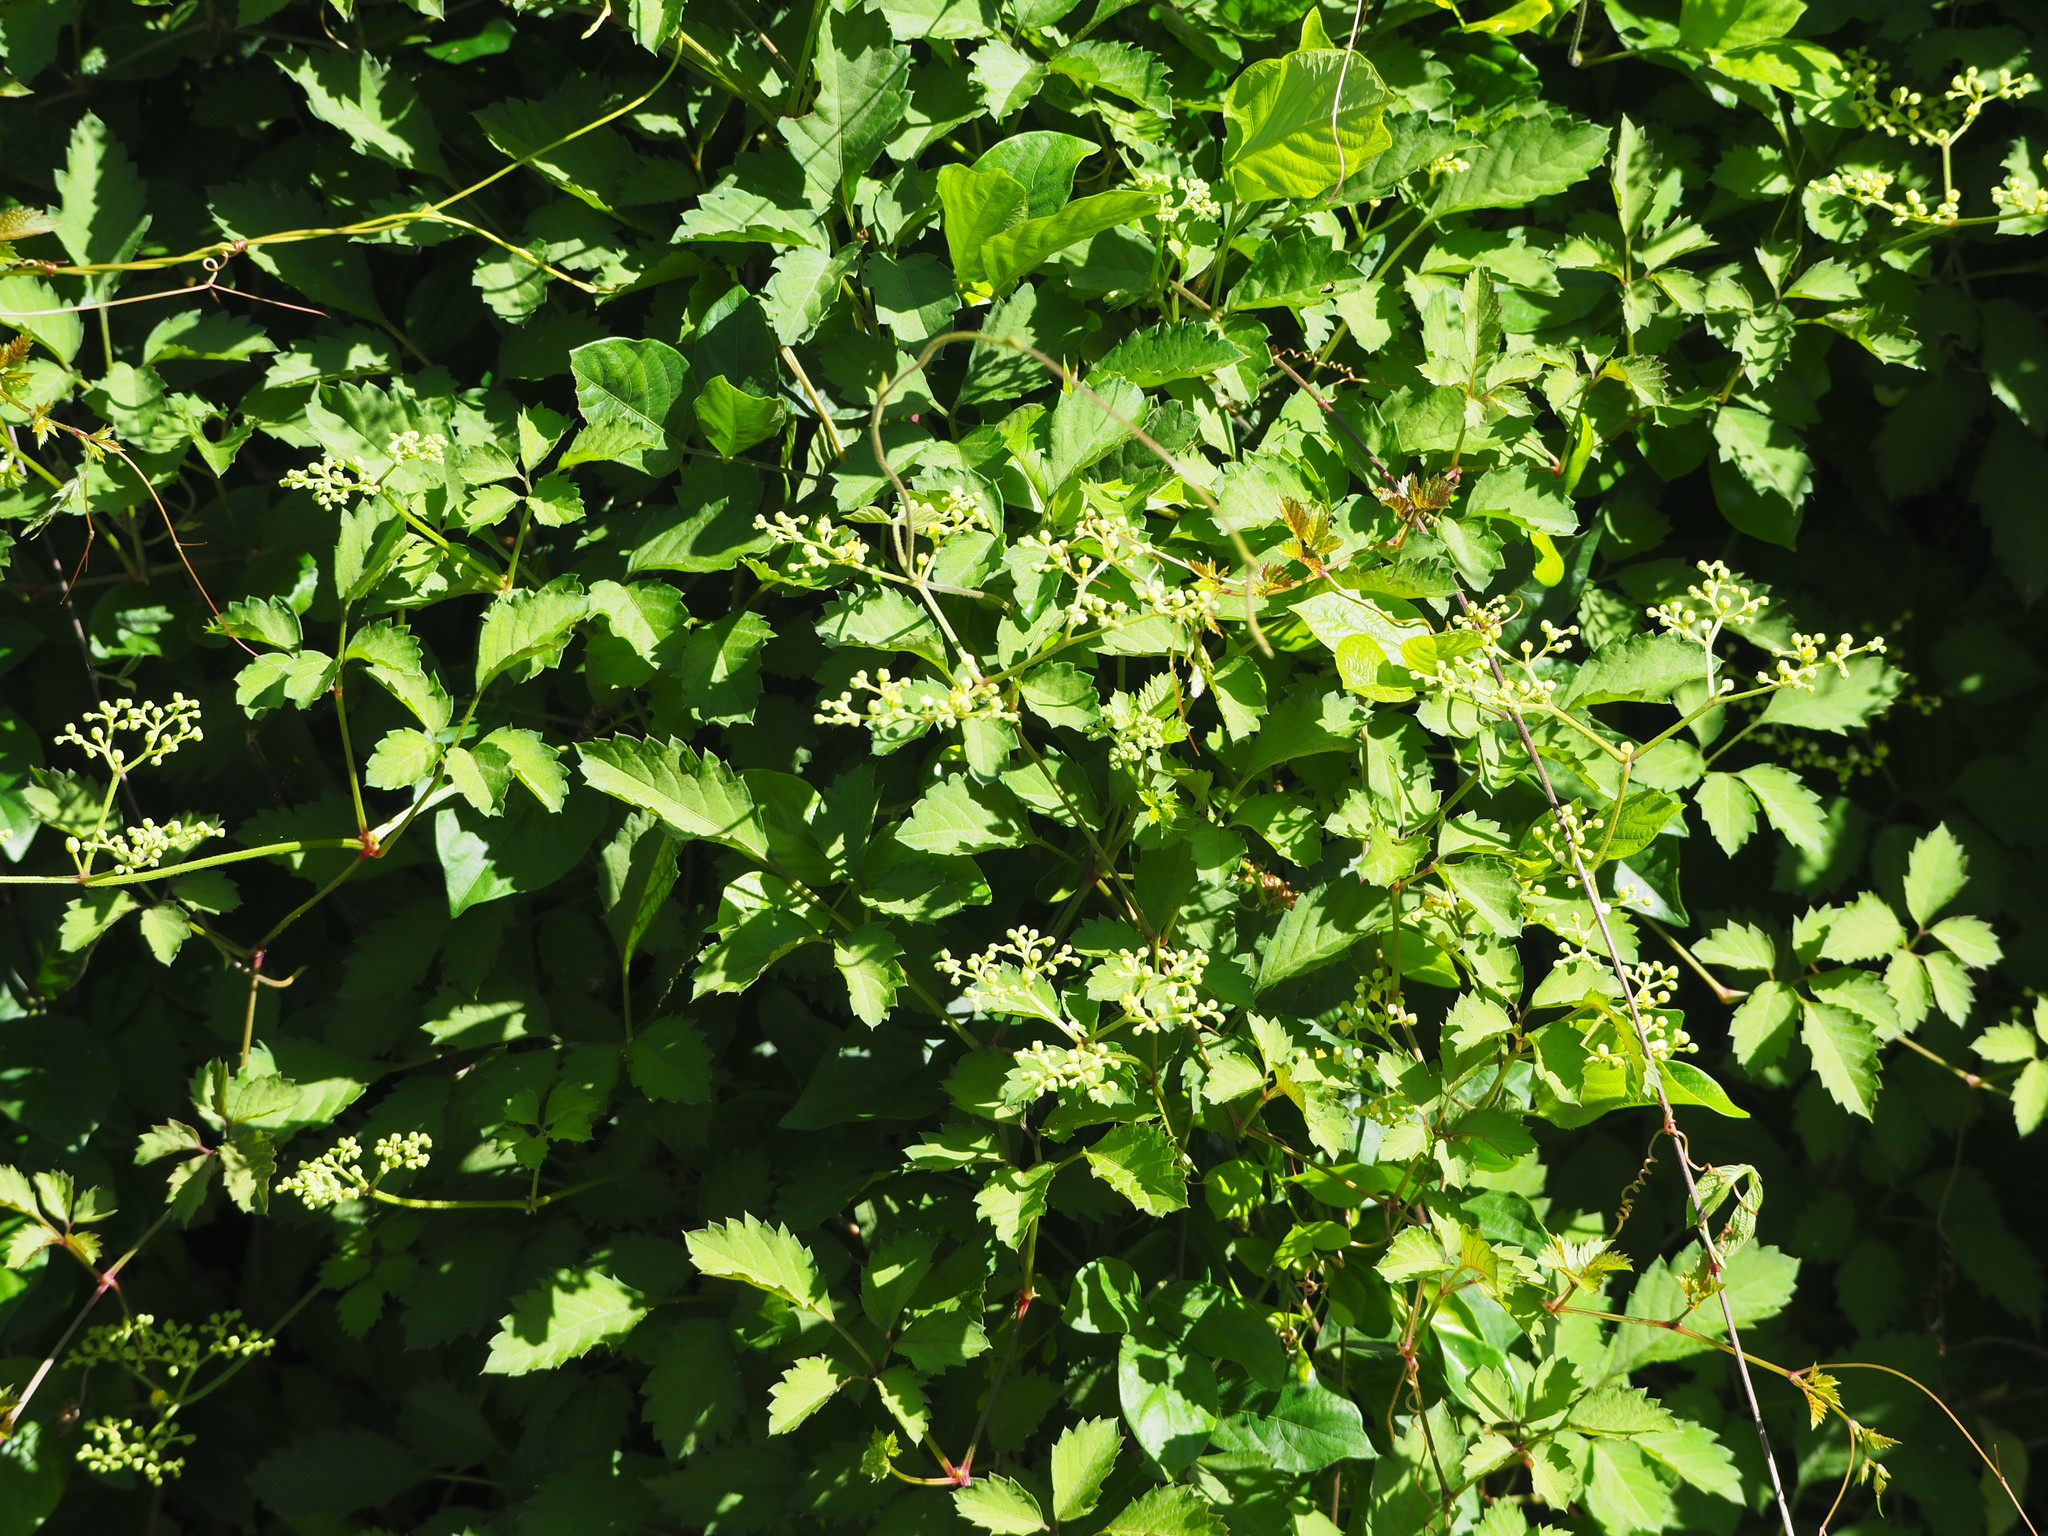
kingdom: Plantae
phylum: Tracheophyta
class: Magnoliopsida
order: Vitales
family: Vitaceae
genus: Causonis
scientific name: Causonis japonica
